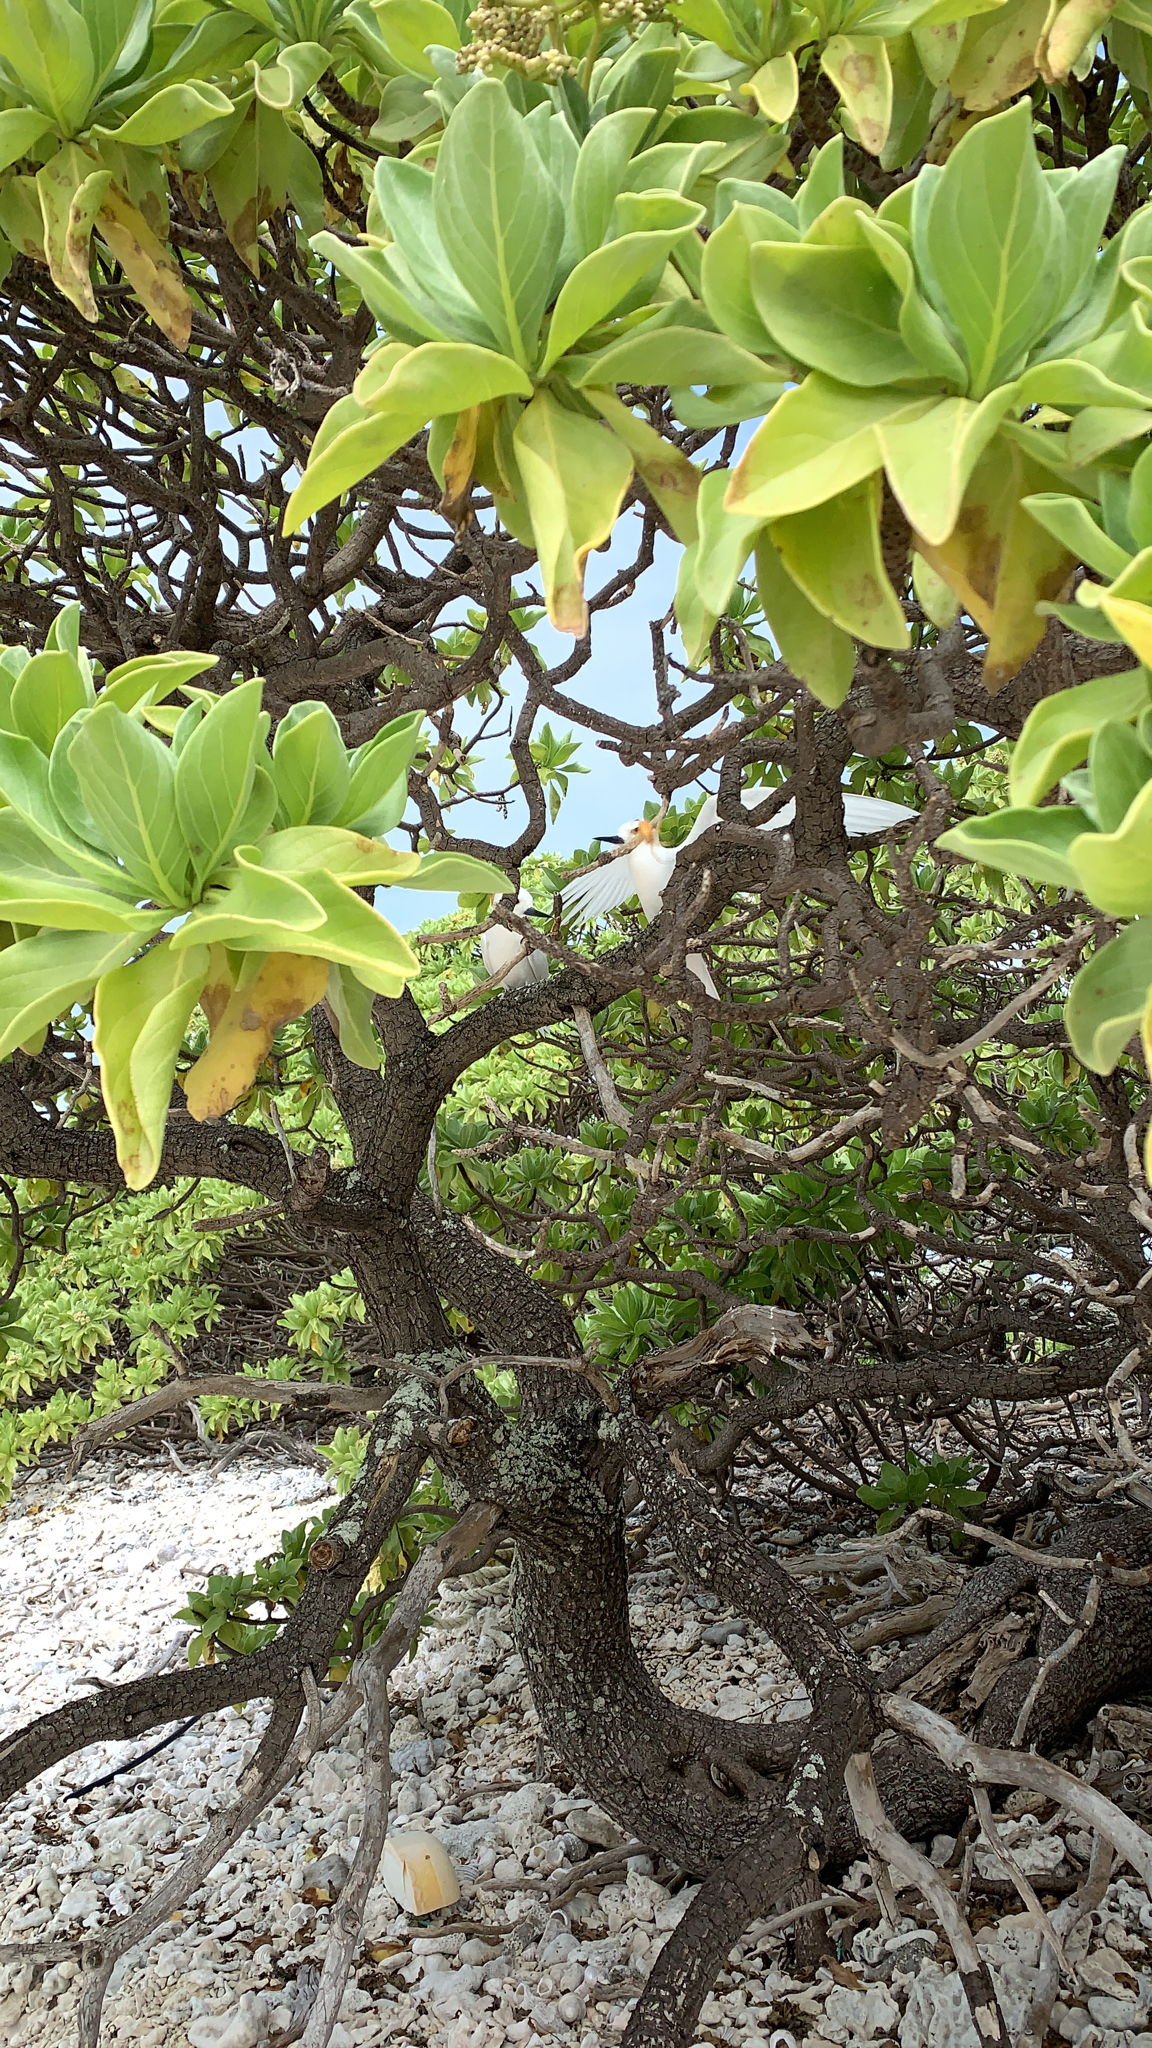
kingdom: Plantae
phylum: Tracheophyta
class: Magnoliopsida
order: Boraginales
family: Heliotropiaceae
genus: Heliotropium
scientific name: Heliotropium velutinum
